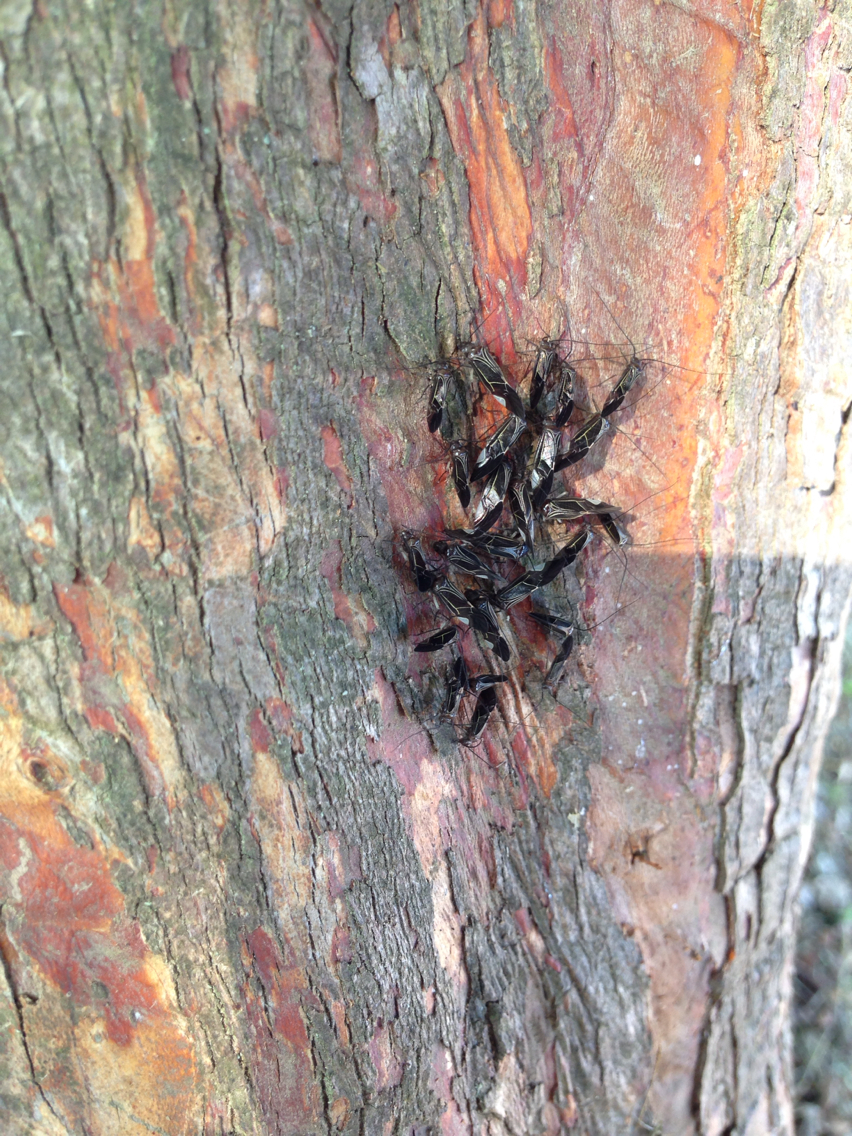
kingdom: Animalia
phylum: Arthropoda
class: Insecta
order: Psocodea
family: Psocidae
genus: Cerastipsocus
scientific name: Cerastipsocus venosus
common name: Tree cattle
